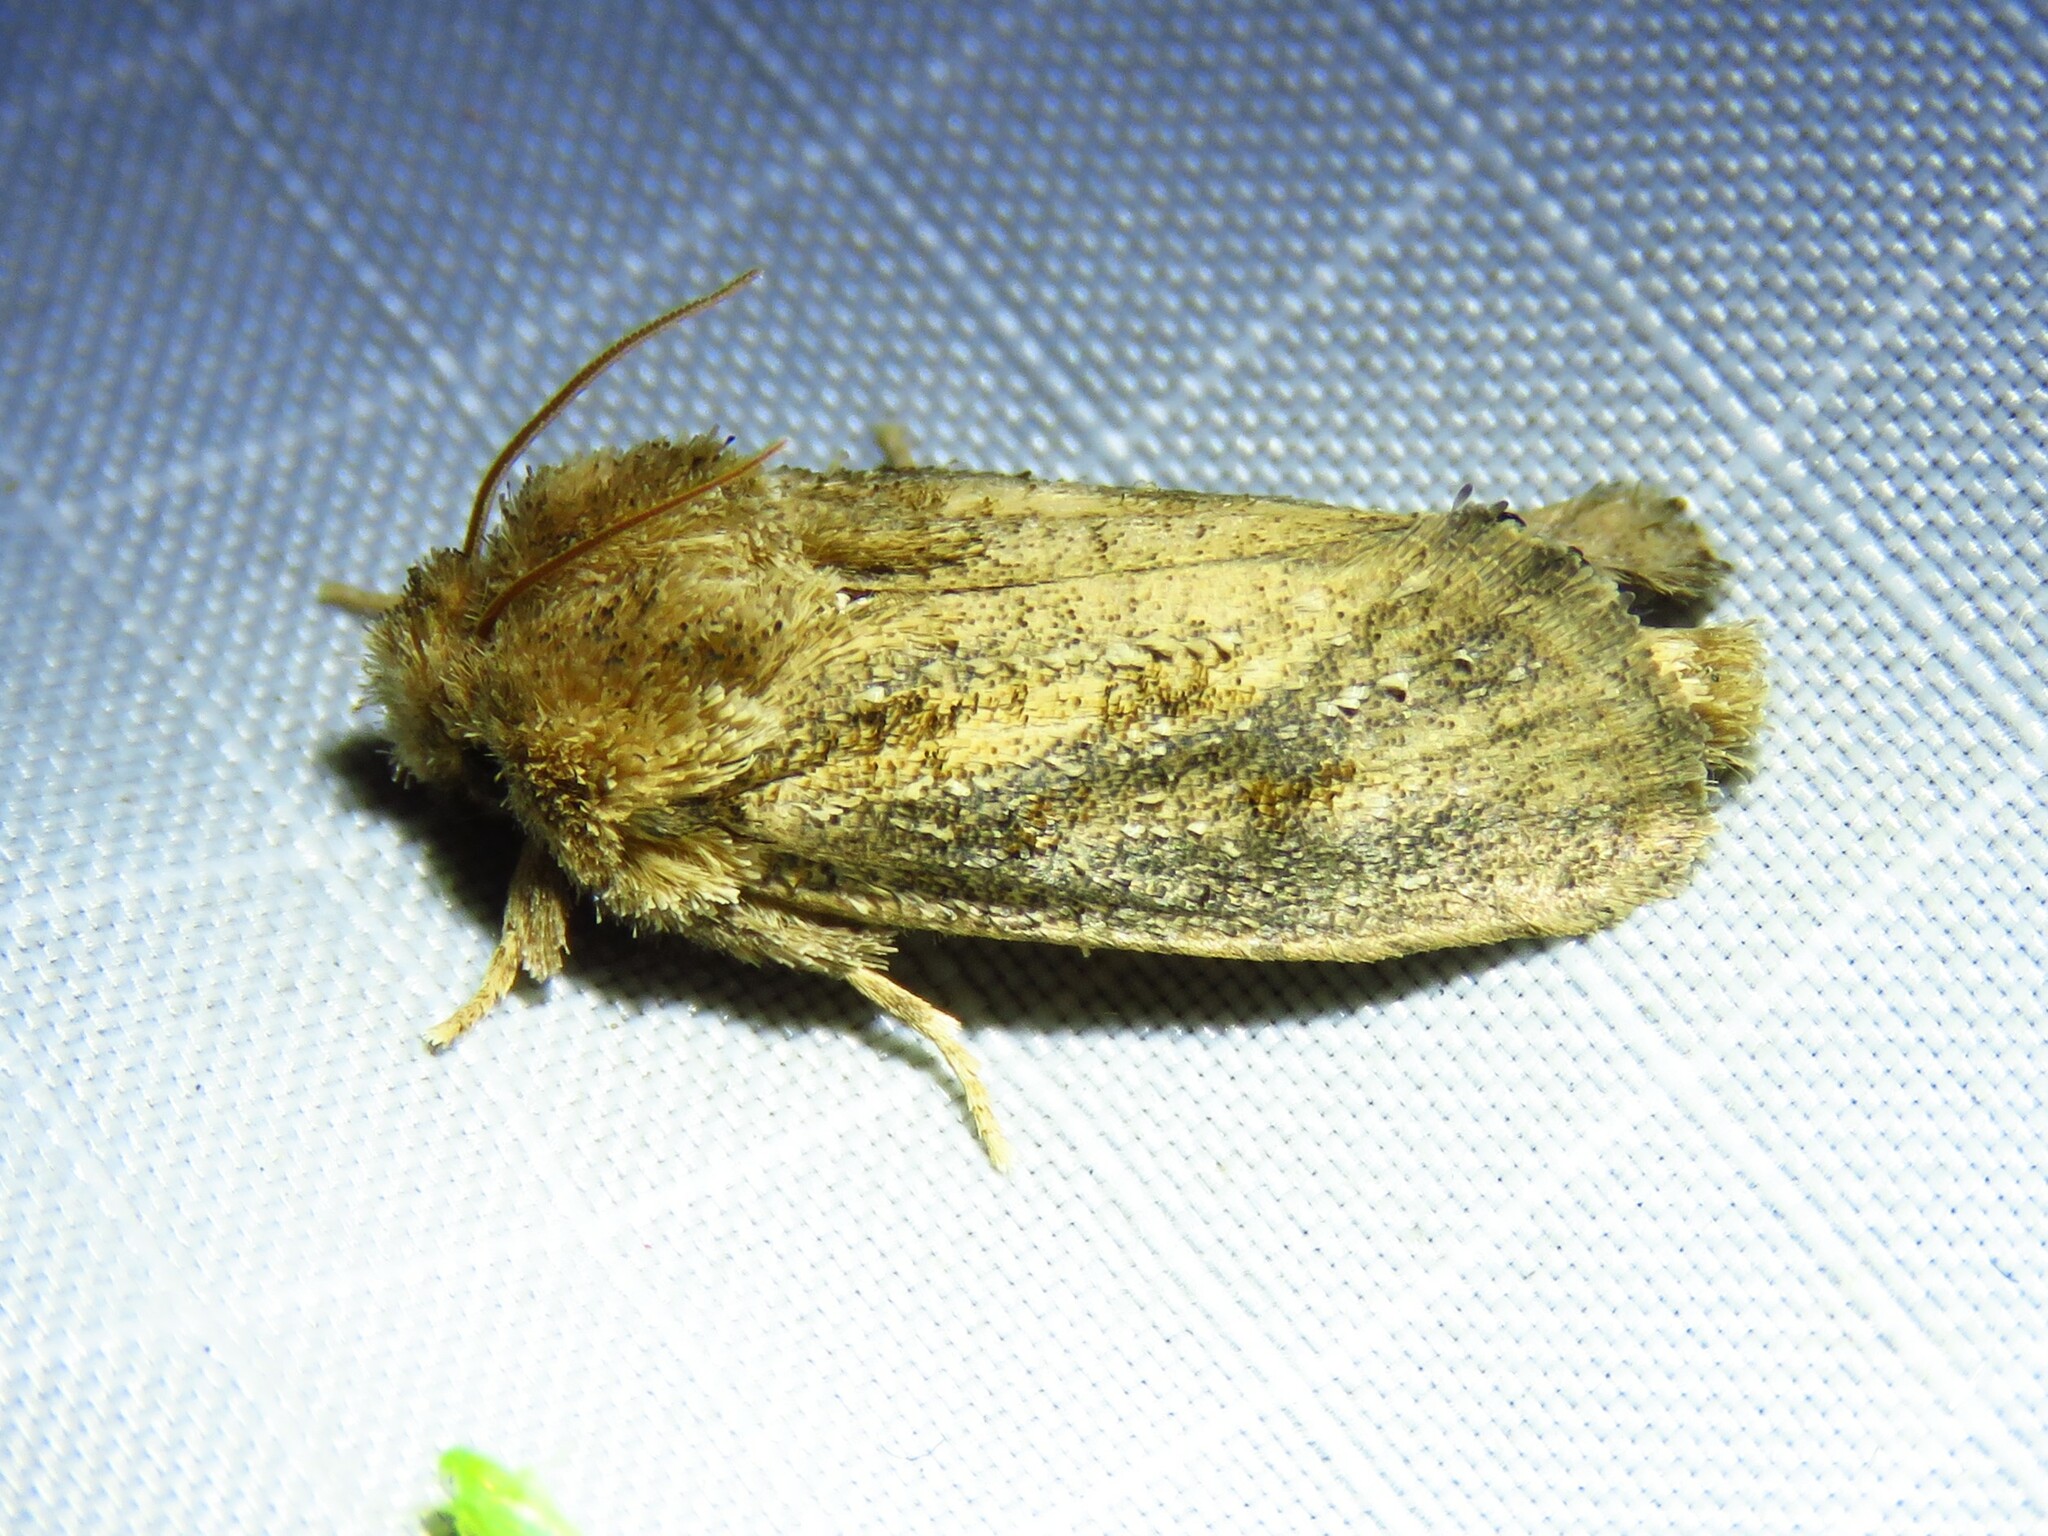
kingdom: Animalia
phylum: Arthropoda
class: Insecta
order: Lepidoptera
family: Tineidae
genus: Acrolophus
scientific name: Acrolophus arcanella
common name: Arcane grass tubeworm moth
